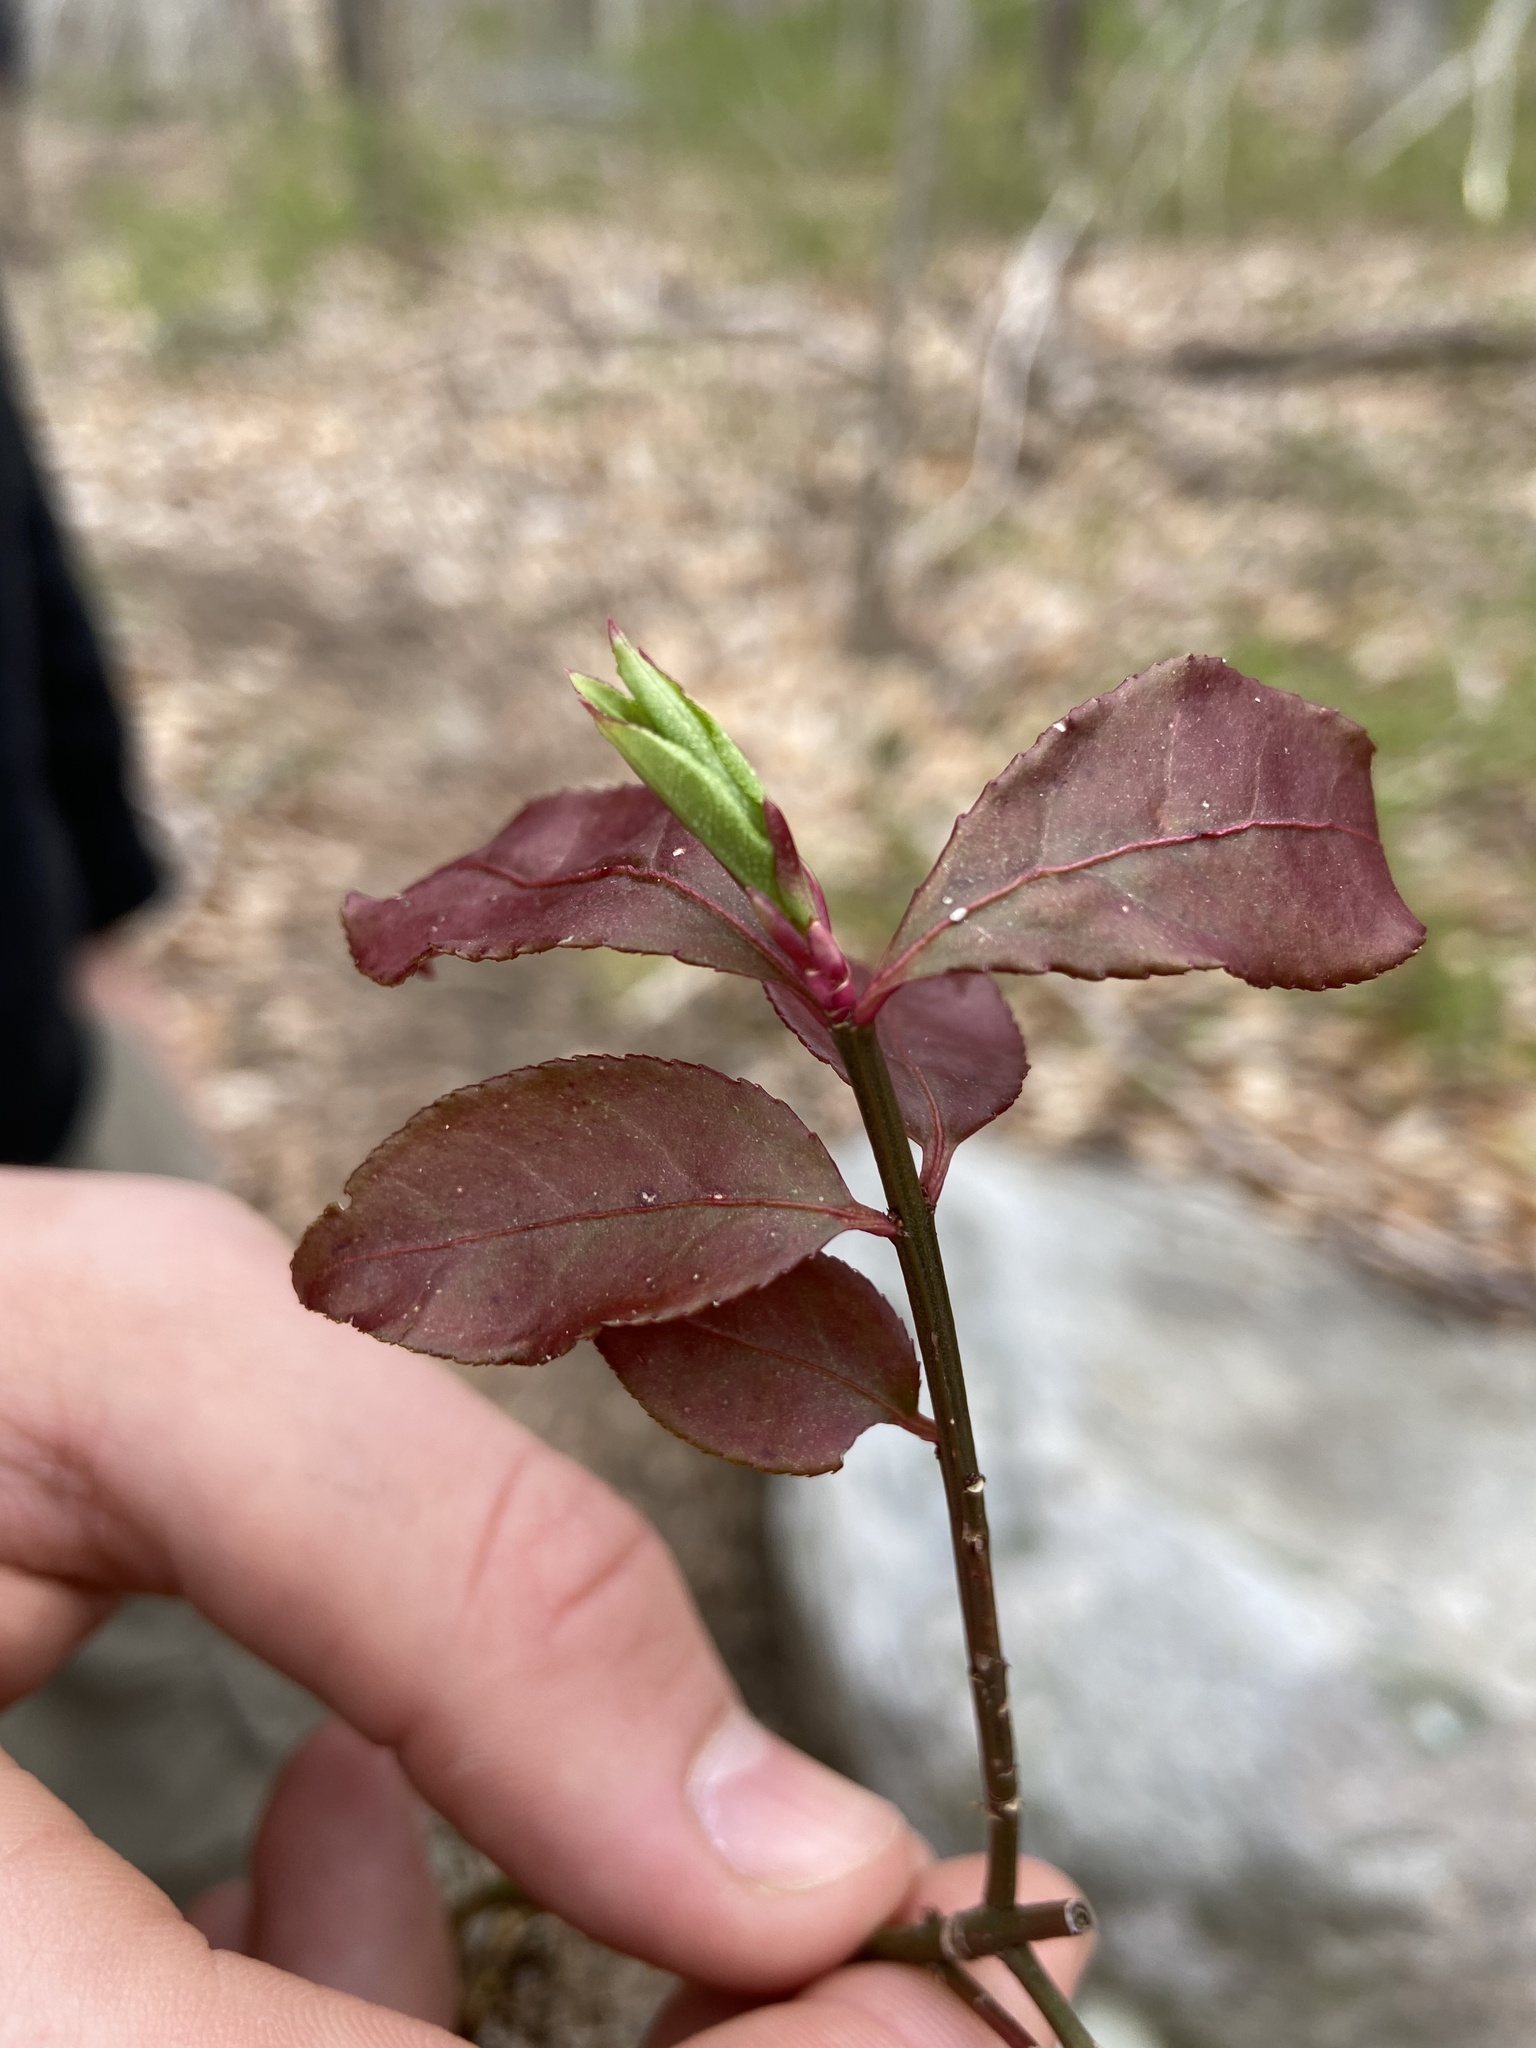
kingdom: Plantae
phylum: Tracheophyta
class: Magnoliopsida
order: Celastrales
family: Celastraceae
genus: Euonymus
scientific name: Euonymus alatus
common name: Winged euonymus
